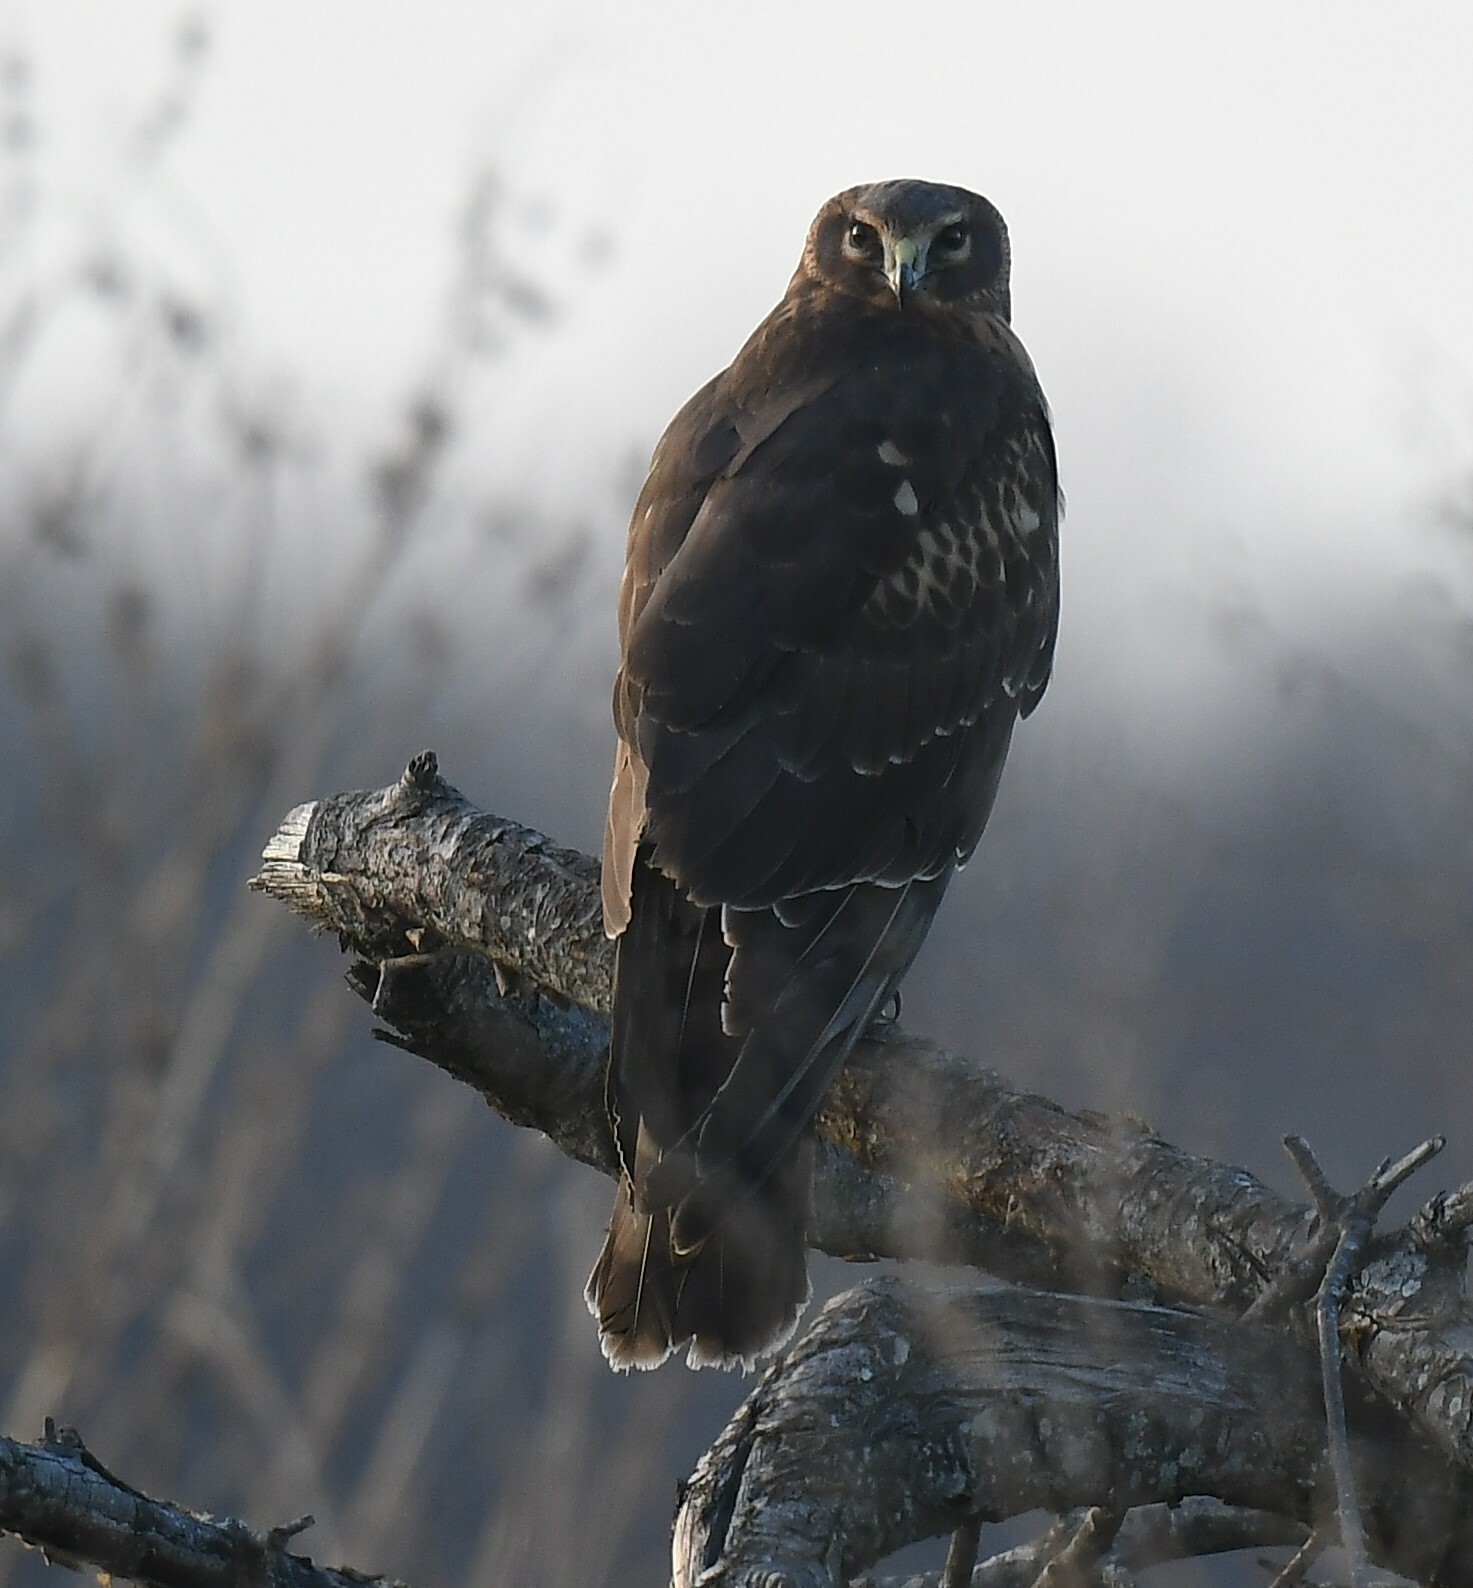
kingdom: Animalia
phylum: Chordata
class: Aves
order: Accipitriformes
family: Accipitridae
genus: Circus
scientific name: Circus cyaneus
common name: Hen harrier
